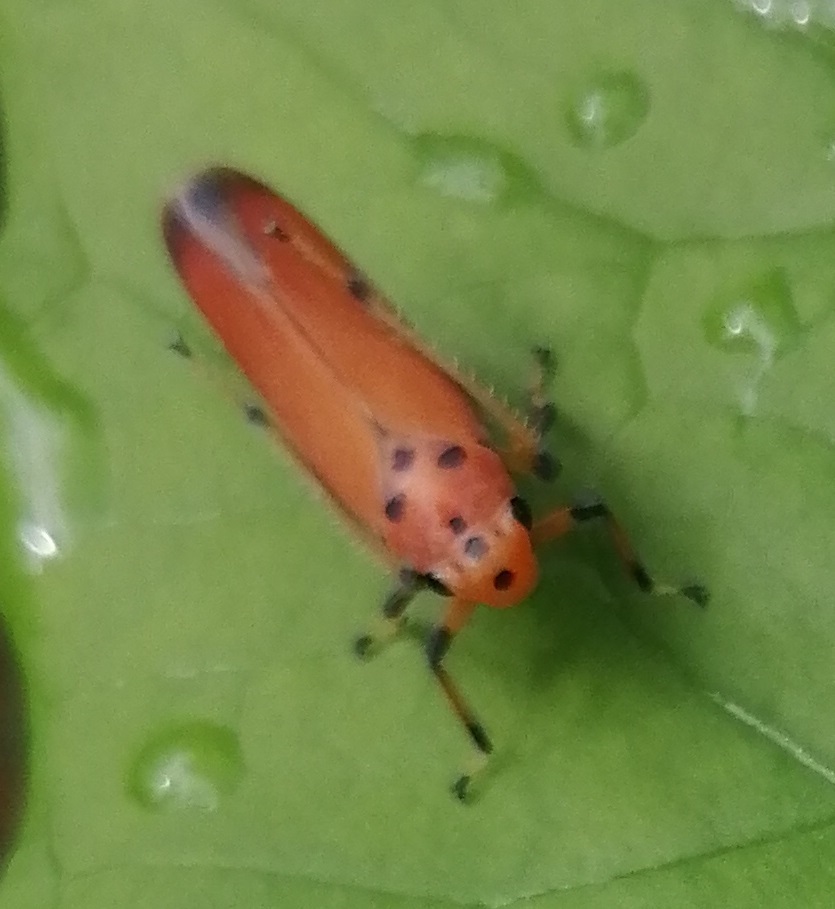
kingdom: Animalia
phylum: Arthropoda
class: Insecta
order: Hemiptera
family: Cicadellidae
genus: Bothrogonia
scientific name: Bothrogonia addita
